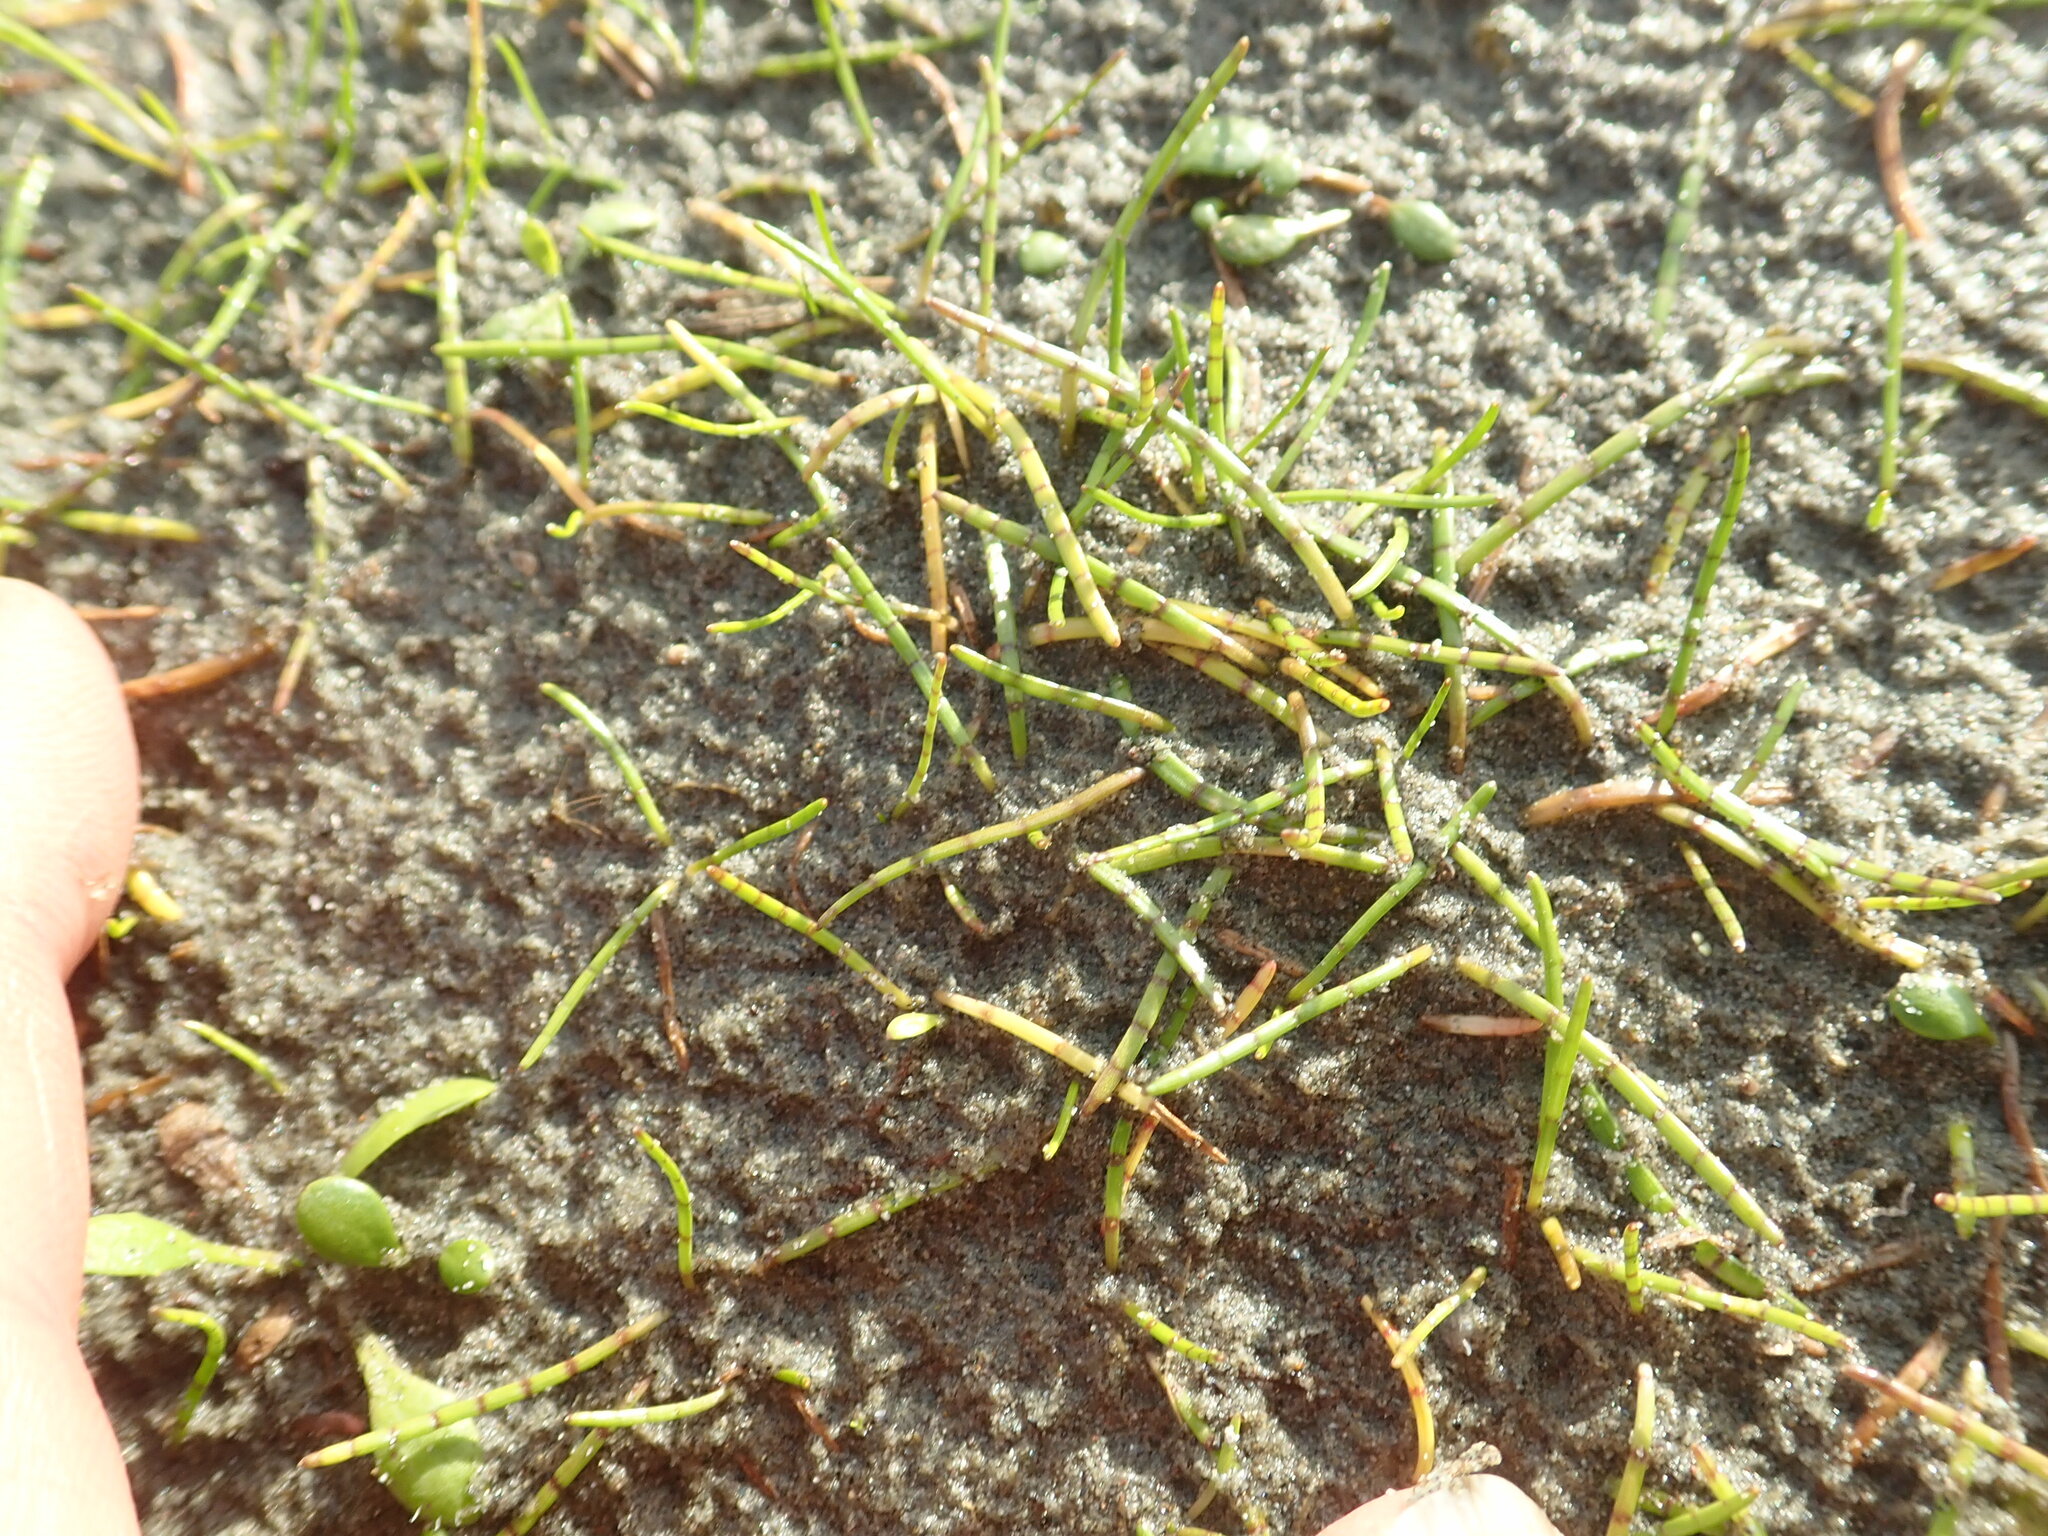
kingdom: Plantae
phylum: Tracheophyta
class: Magnoliopsida
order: Apiales
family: Apiaceae
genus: Lilaeopsis
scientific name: Lilaeopsis novae-zelandiae
